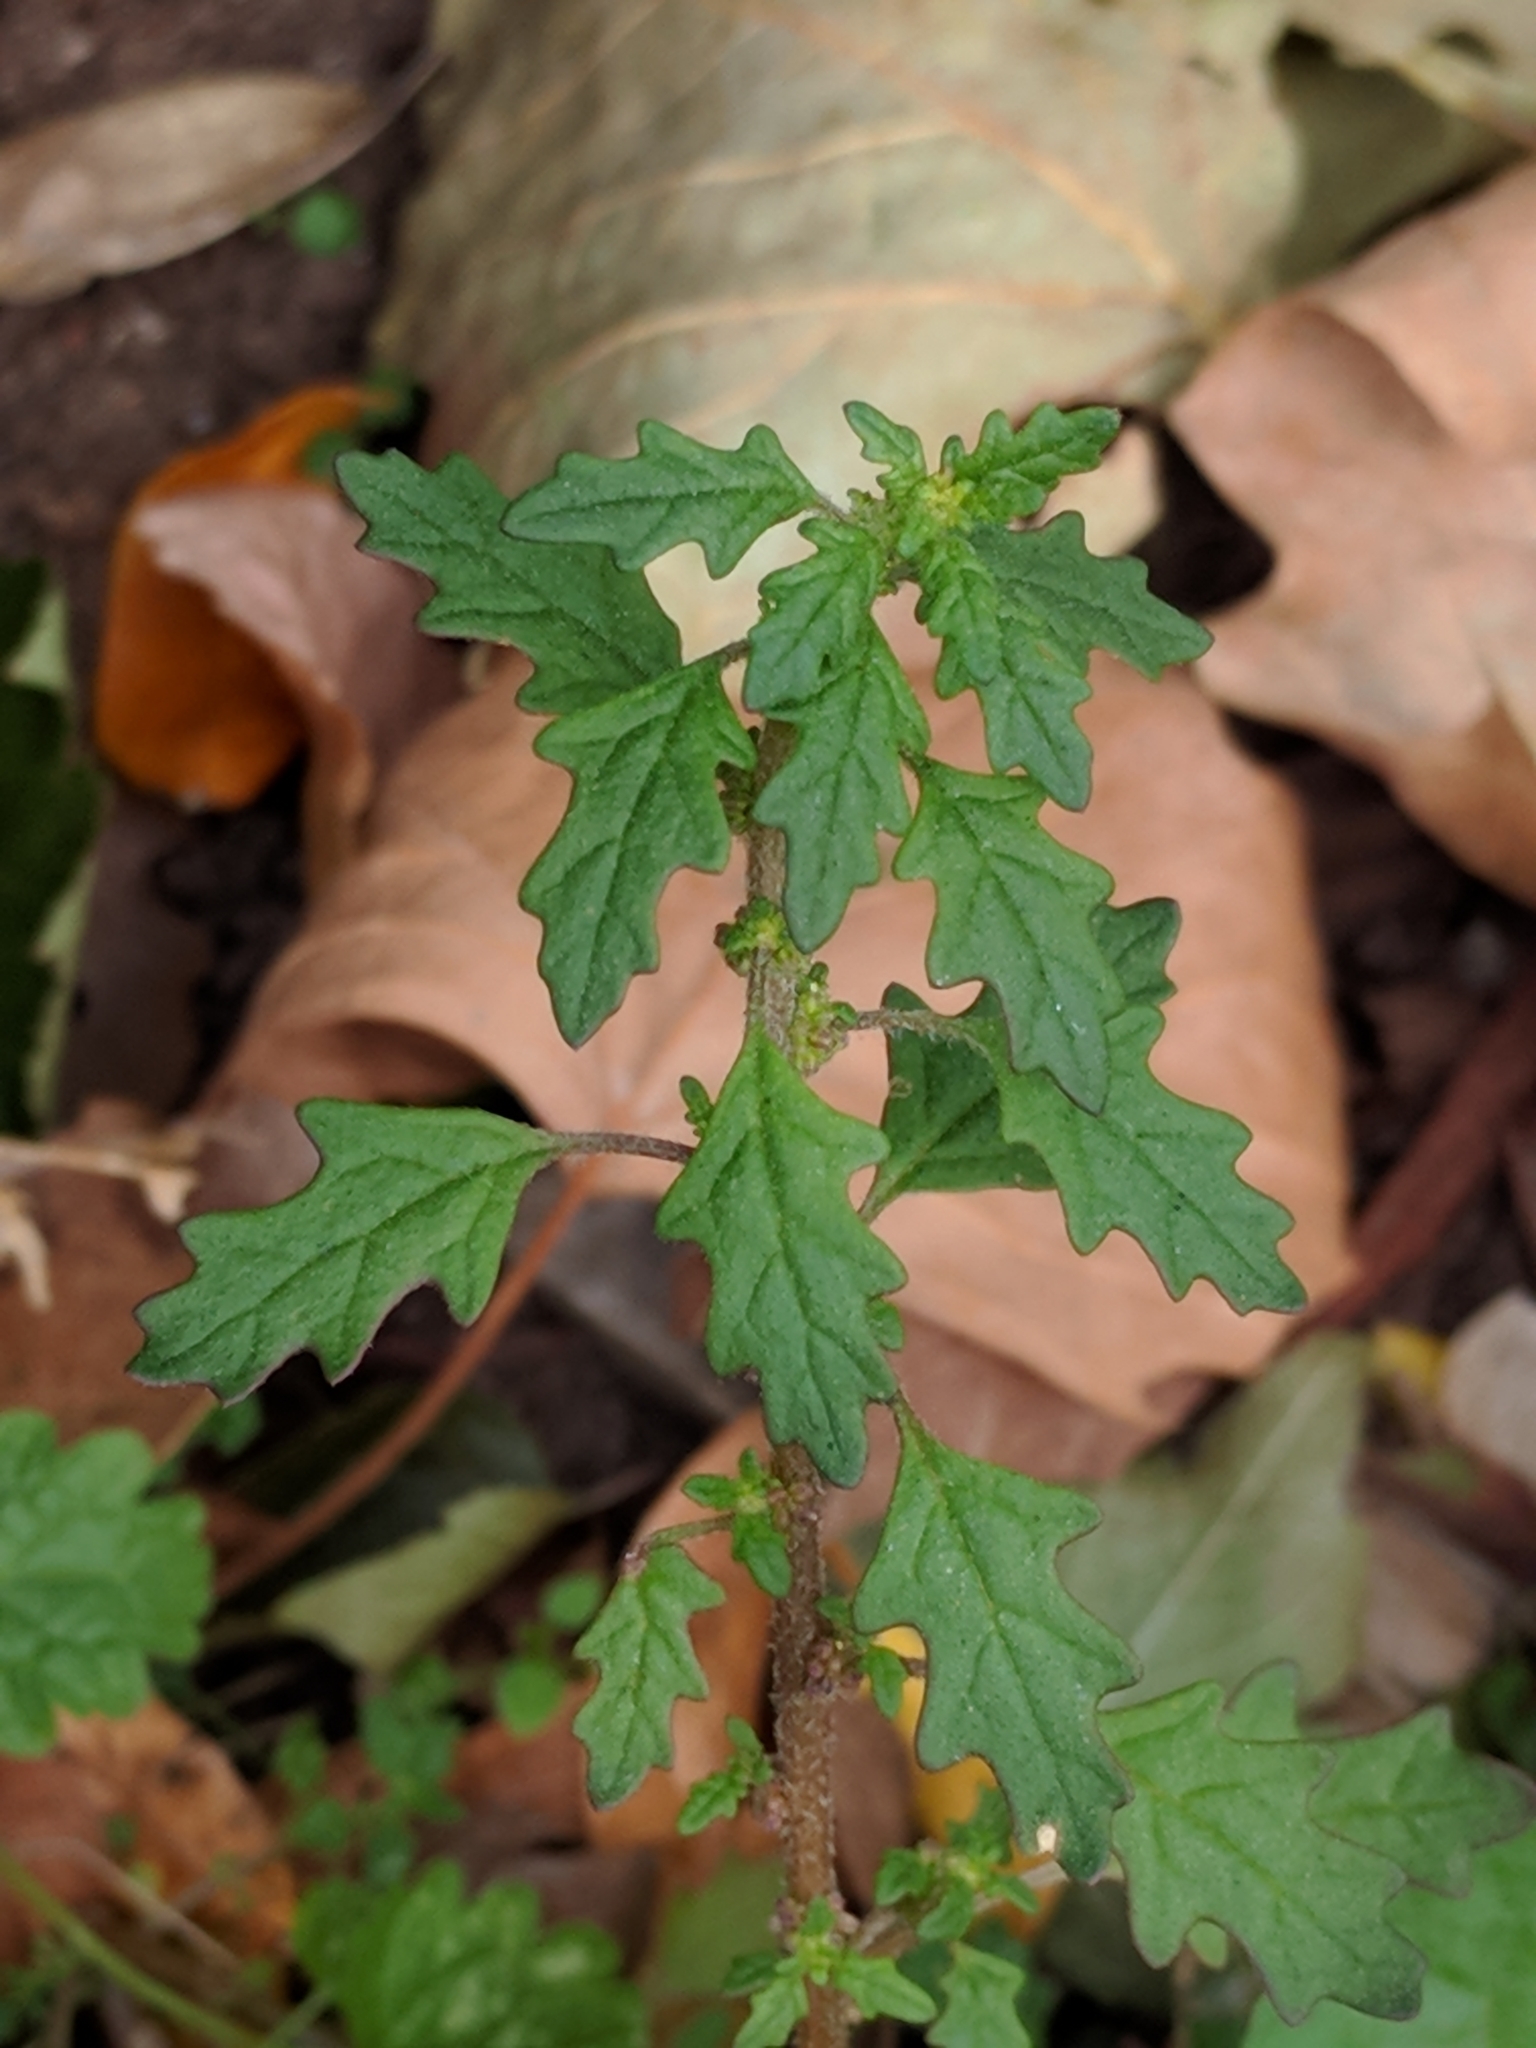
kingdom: Plantae
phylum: Tracheophyta
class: Magnoliopsida
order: Caryophyllales
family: Amaranthaceae
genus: Dysphania
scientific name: Dysphania pumilio
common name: Clammy goosefoot
